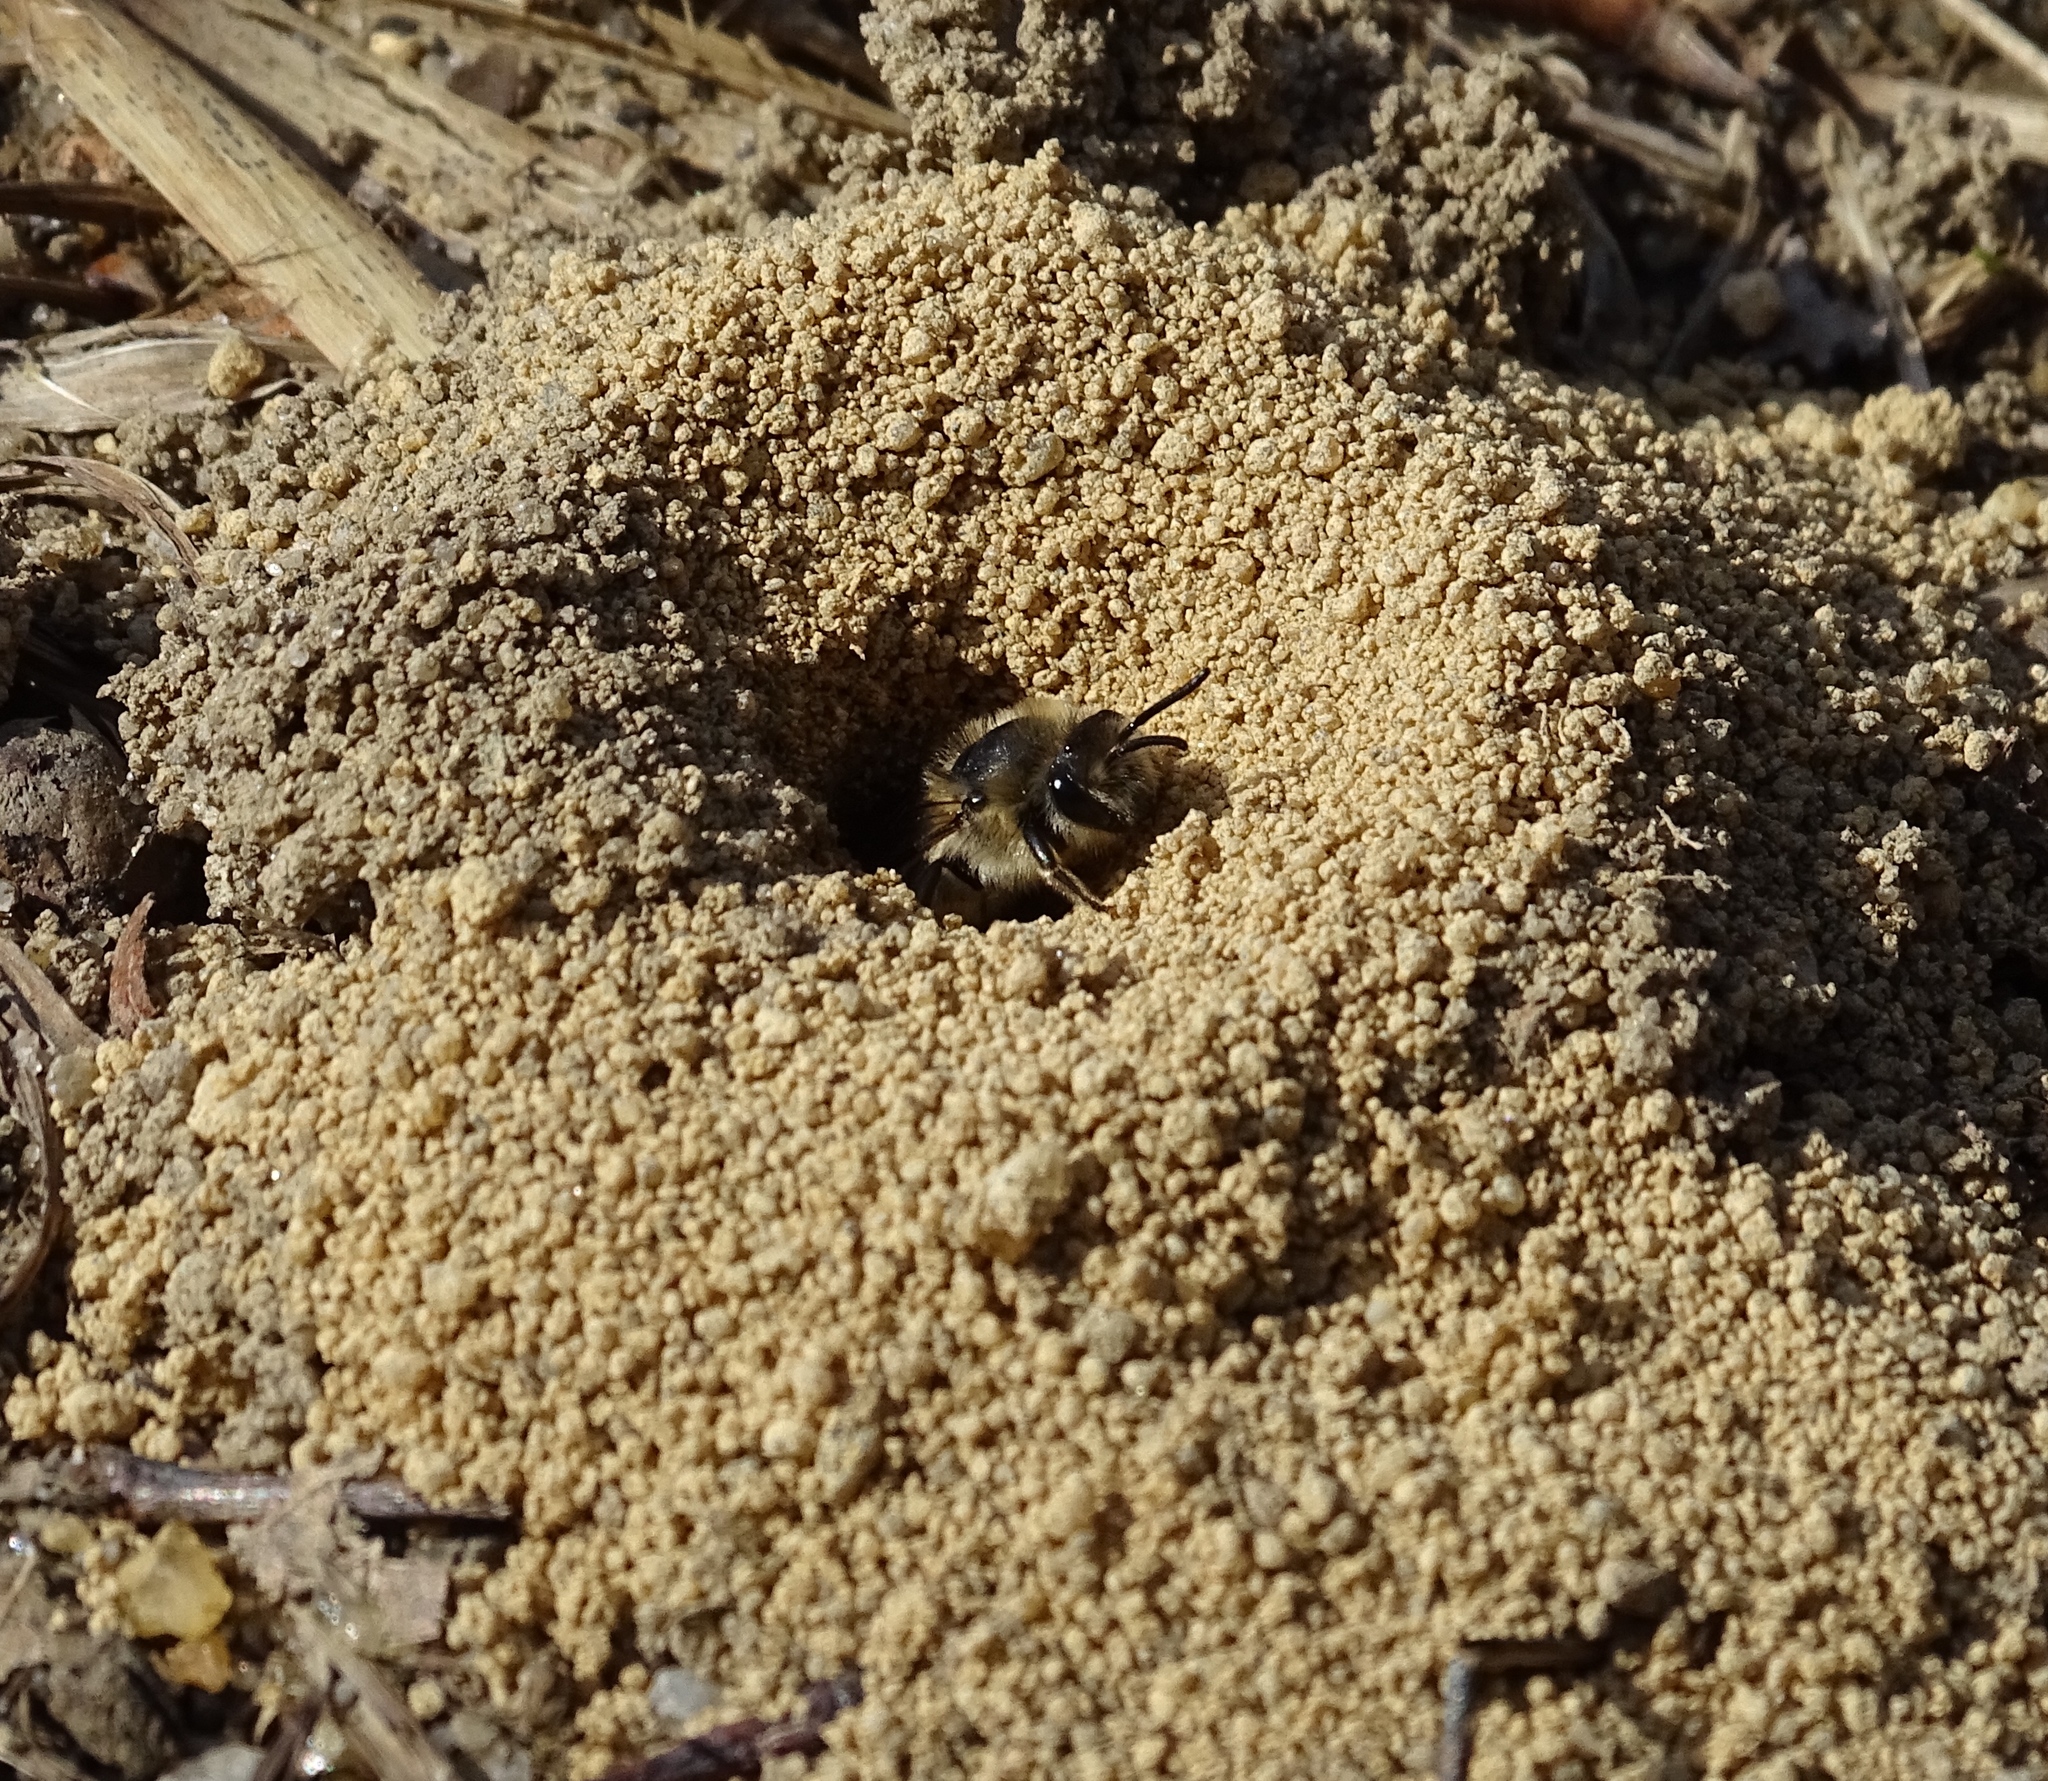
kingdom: Animalia
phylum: Arthropoda
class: Insecta
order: Hymenoptera
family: Colletidae
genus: Colletes
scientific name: Colletes inaequalis
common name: Unequal cellophane bee
